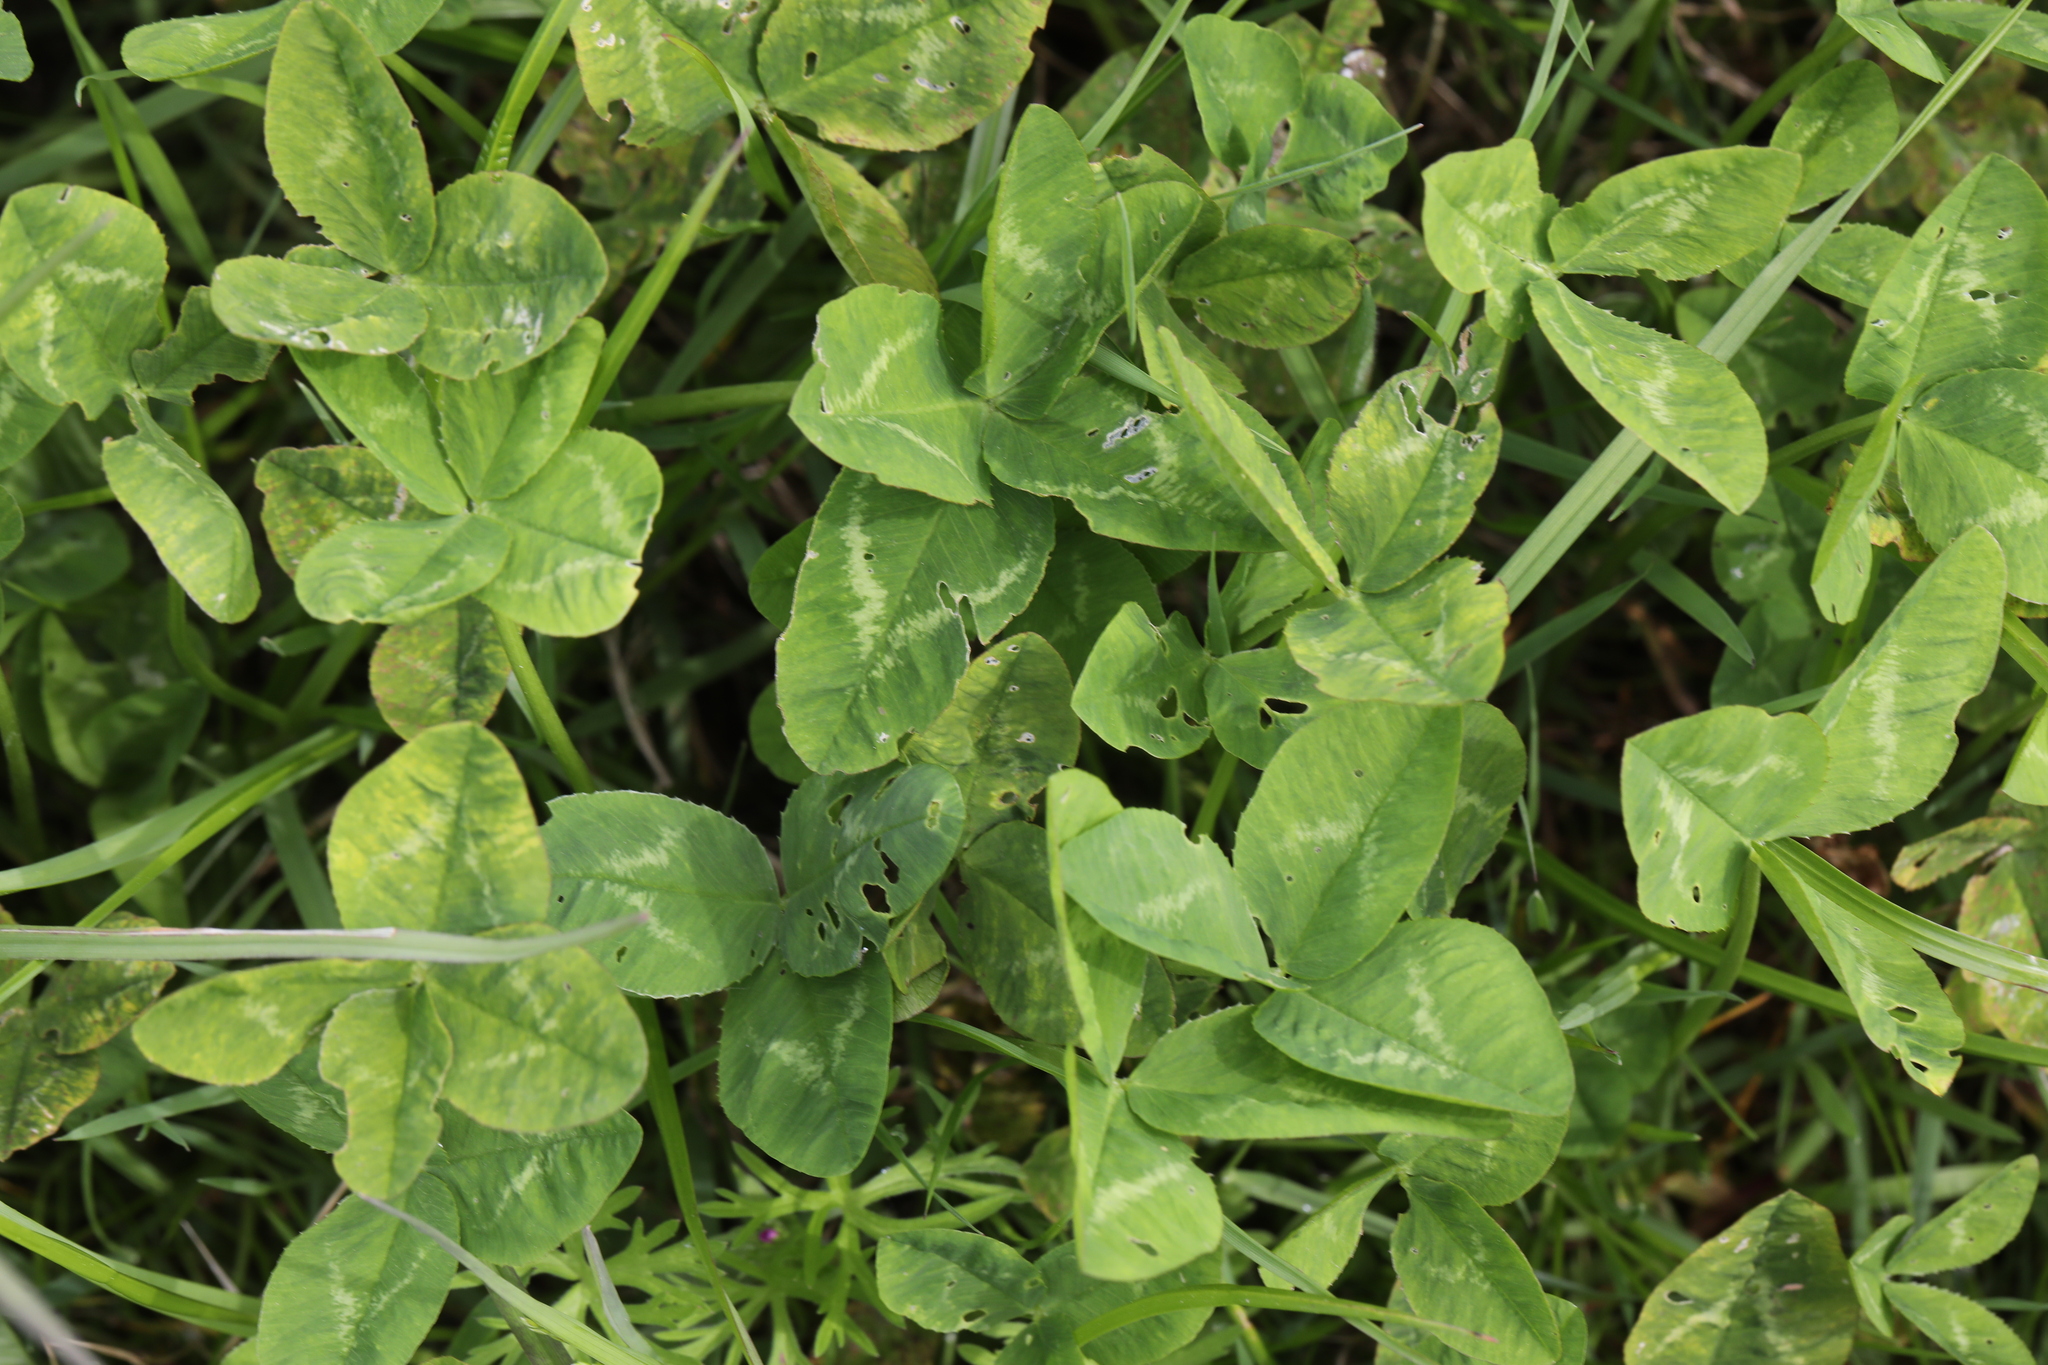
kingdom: Plantae
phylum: Tracheophyta
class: Magnoliopsida
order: Fabales
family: Fabaceae
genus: Trifolium
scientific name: Trifolium repens
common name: White clover
